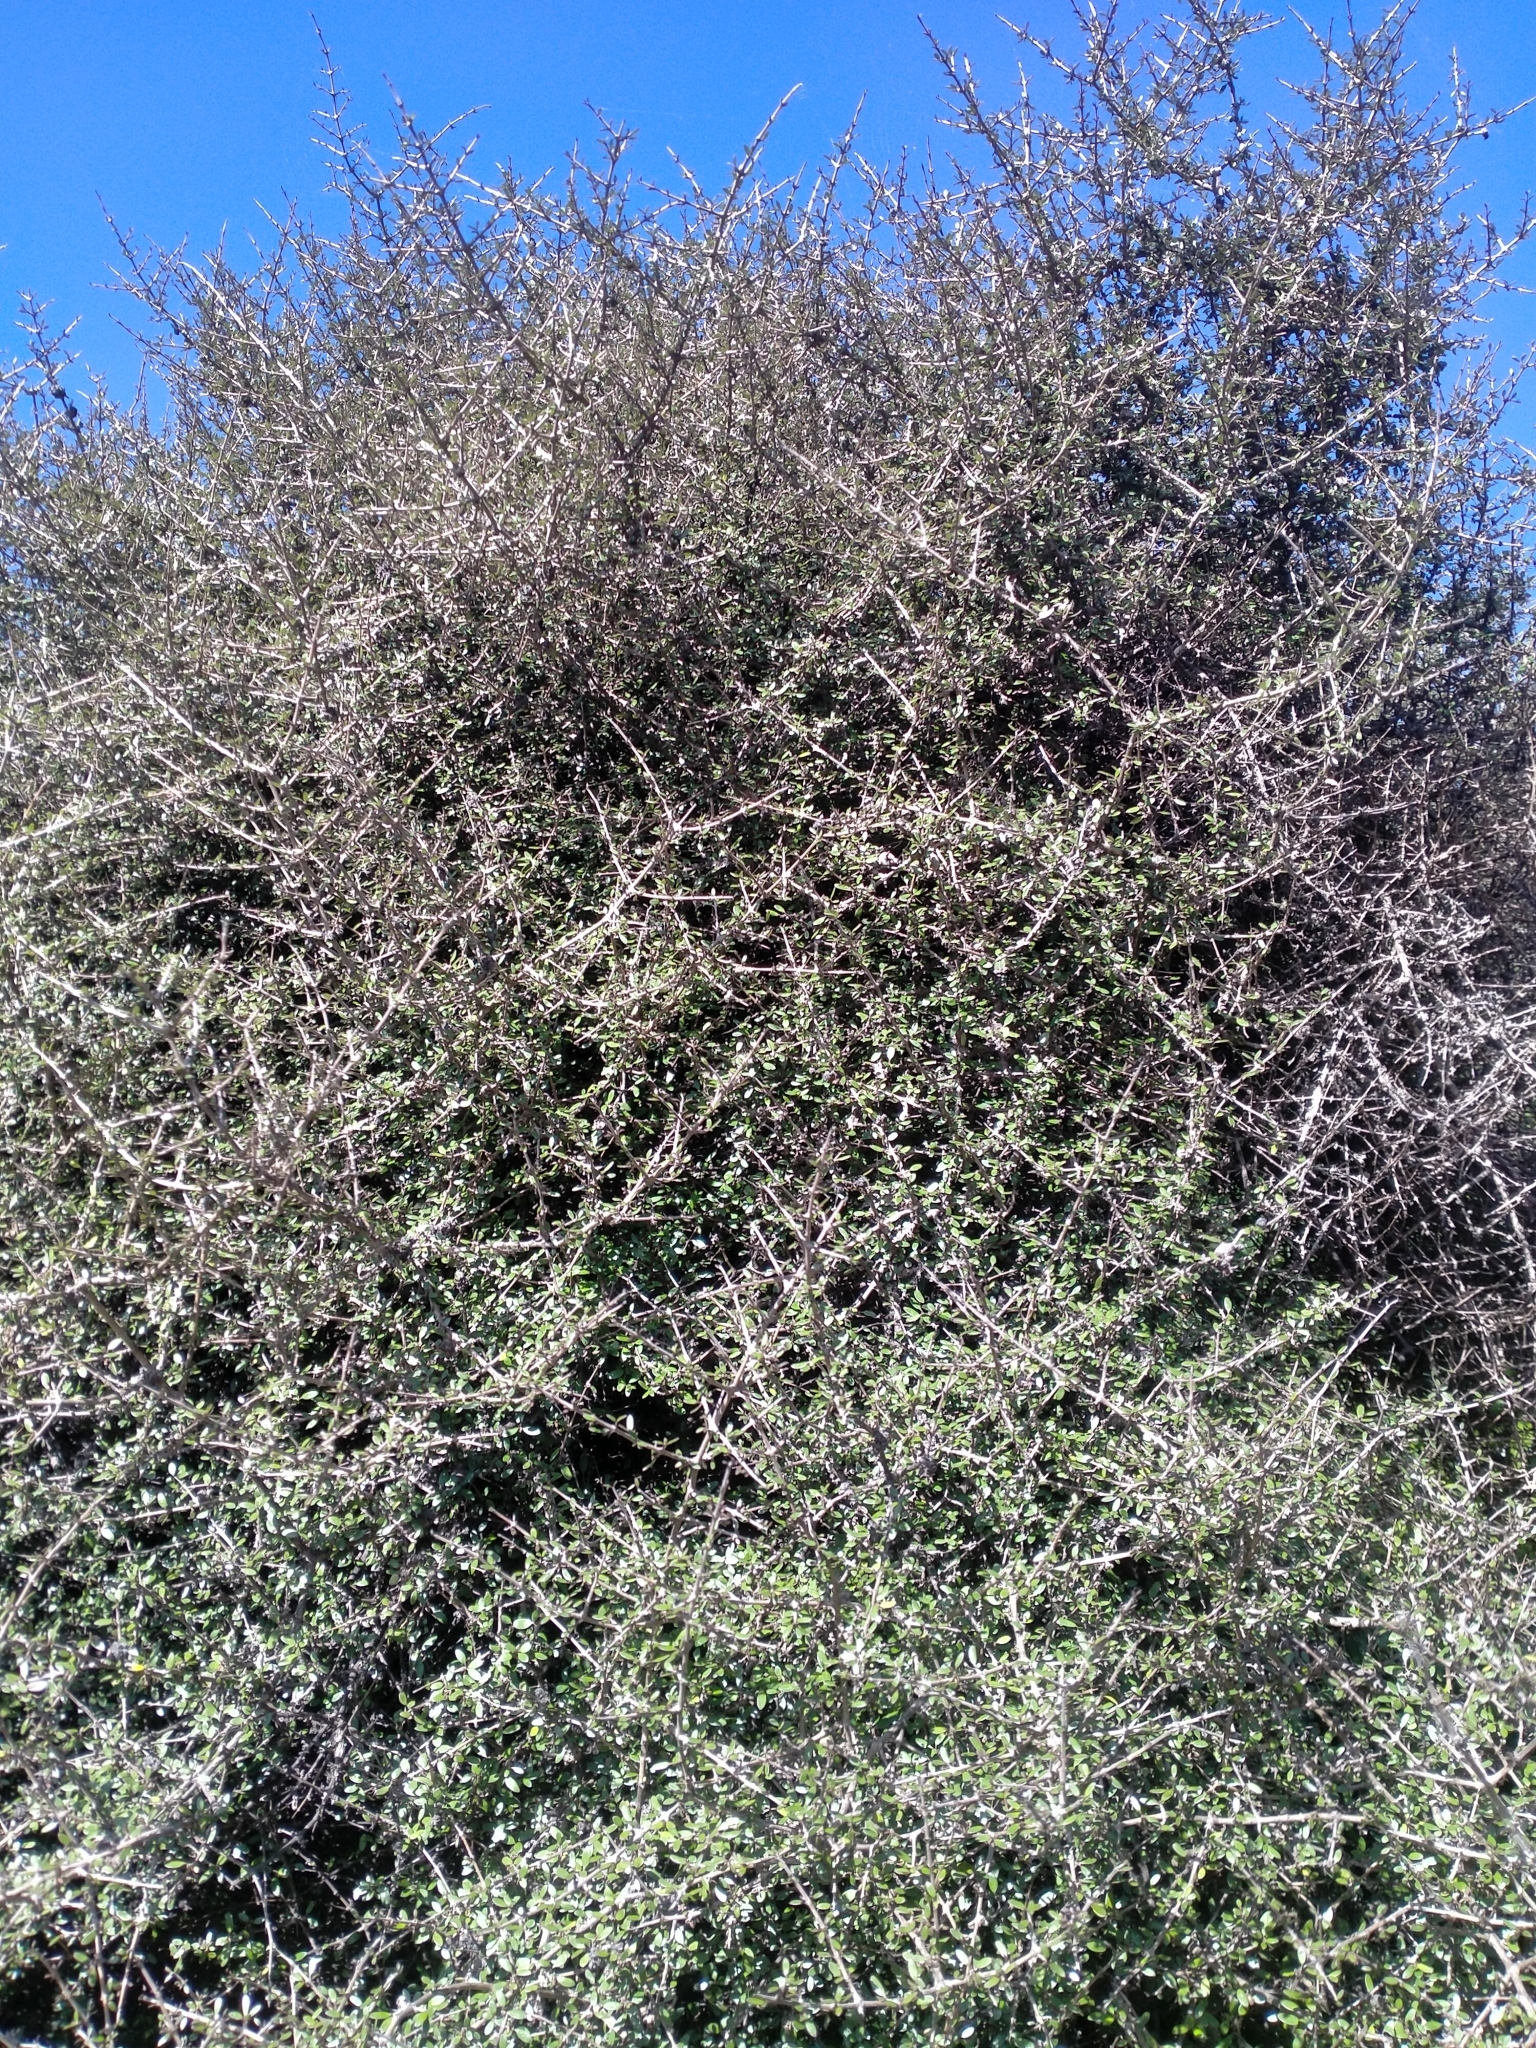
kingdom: Plantae
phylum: Tracheophyta
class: Magnoliopsida
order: Gentianales
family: Rubiaceae
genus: Coprosma
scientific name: Coprosma propinqua
